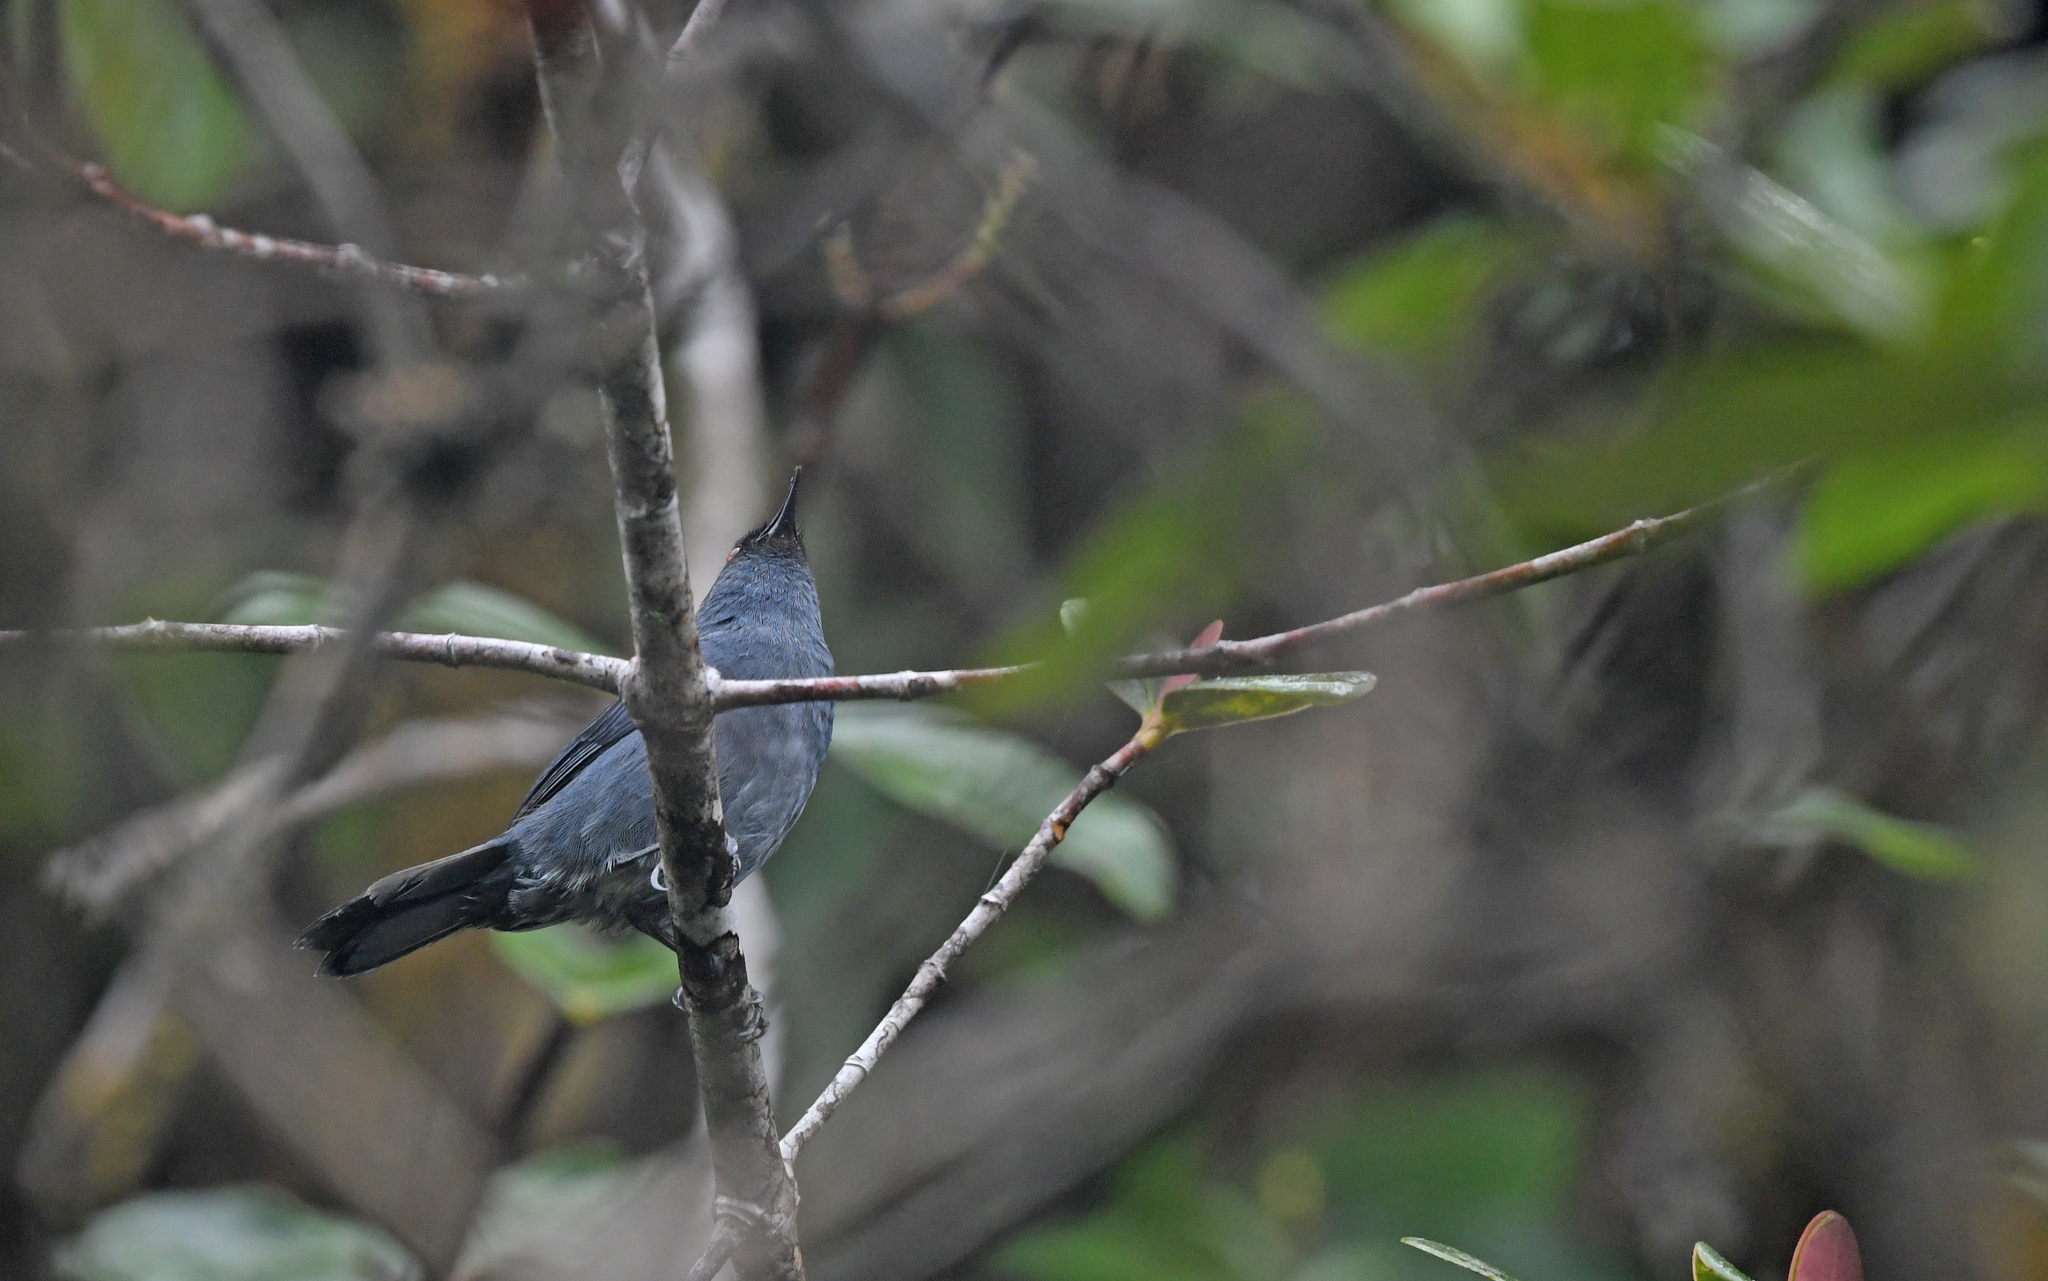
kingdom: Animalia
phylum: Chordata
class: Aves
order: Passeriformes
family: Thraupidae
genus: Diglossa
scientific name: Diglossa caerulescens
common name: Bluish flowerpiercer
